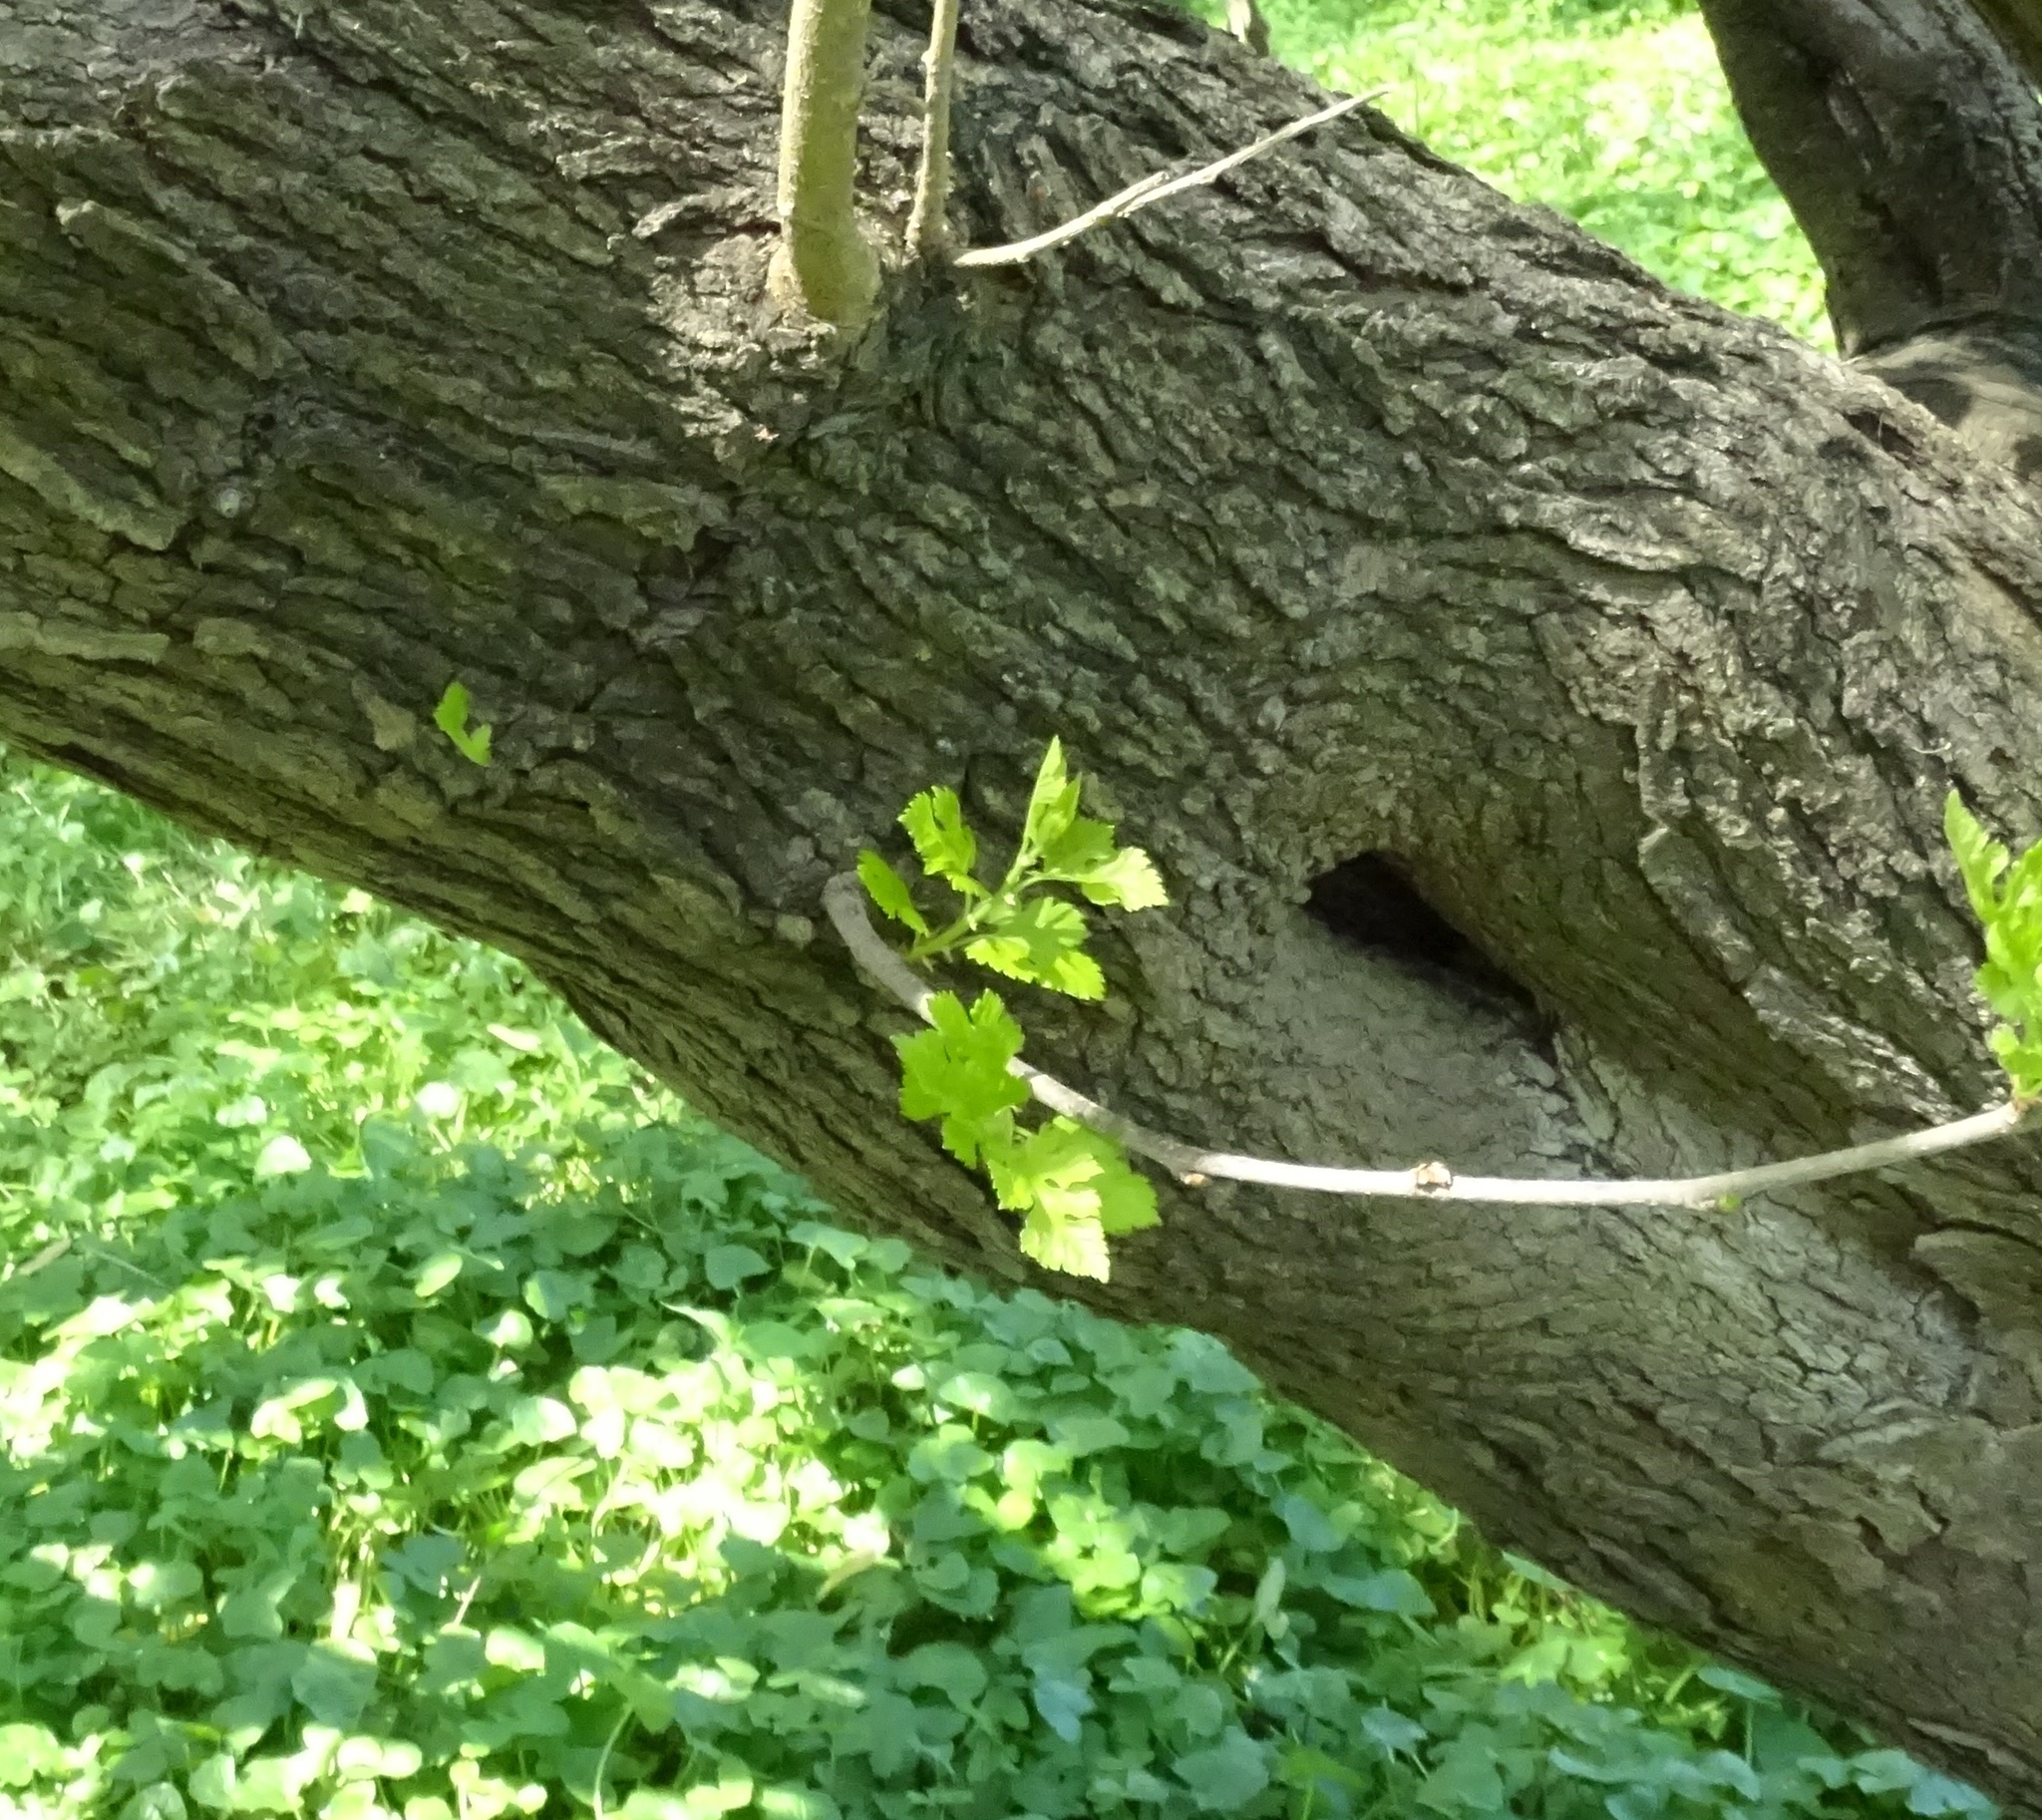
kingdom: Plantae
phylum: Tracheophyta
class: Magnoliopsida
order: Rosales
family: Moraceae
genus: Morus
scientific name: Morus alba
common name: White mulberry
